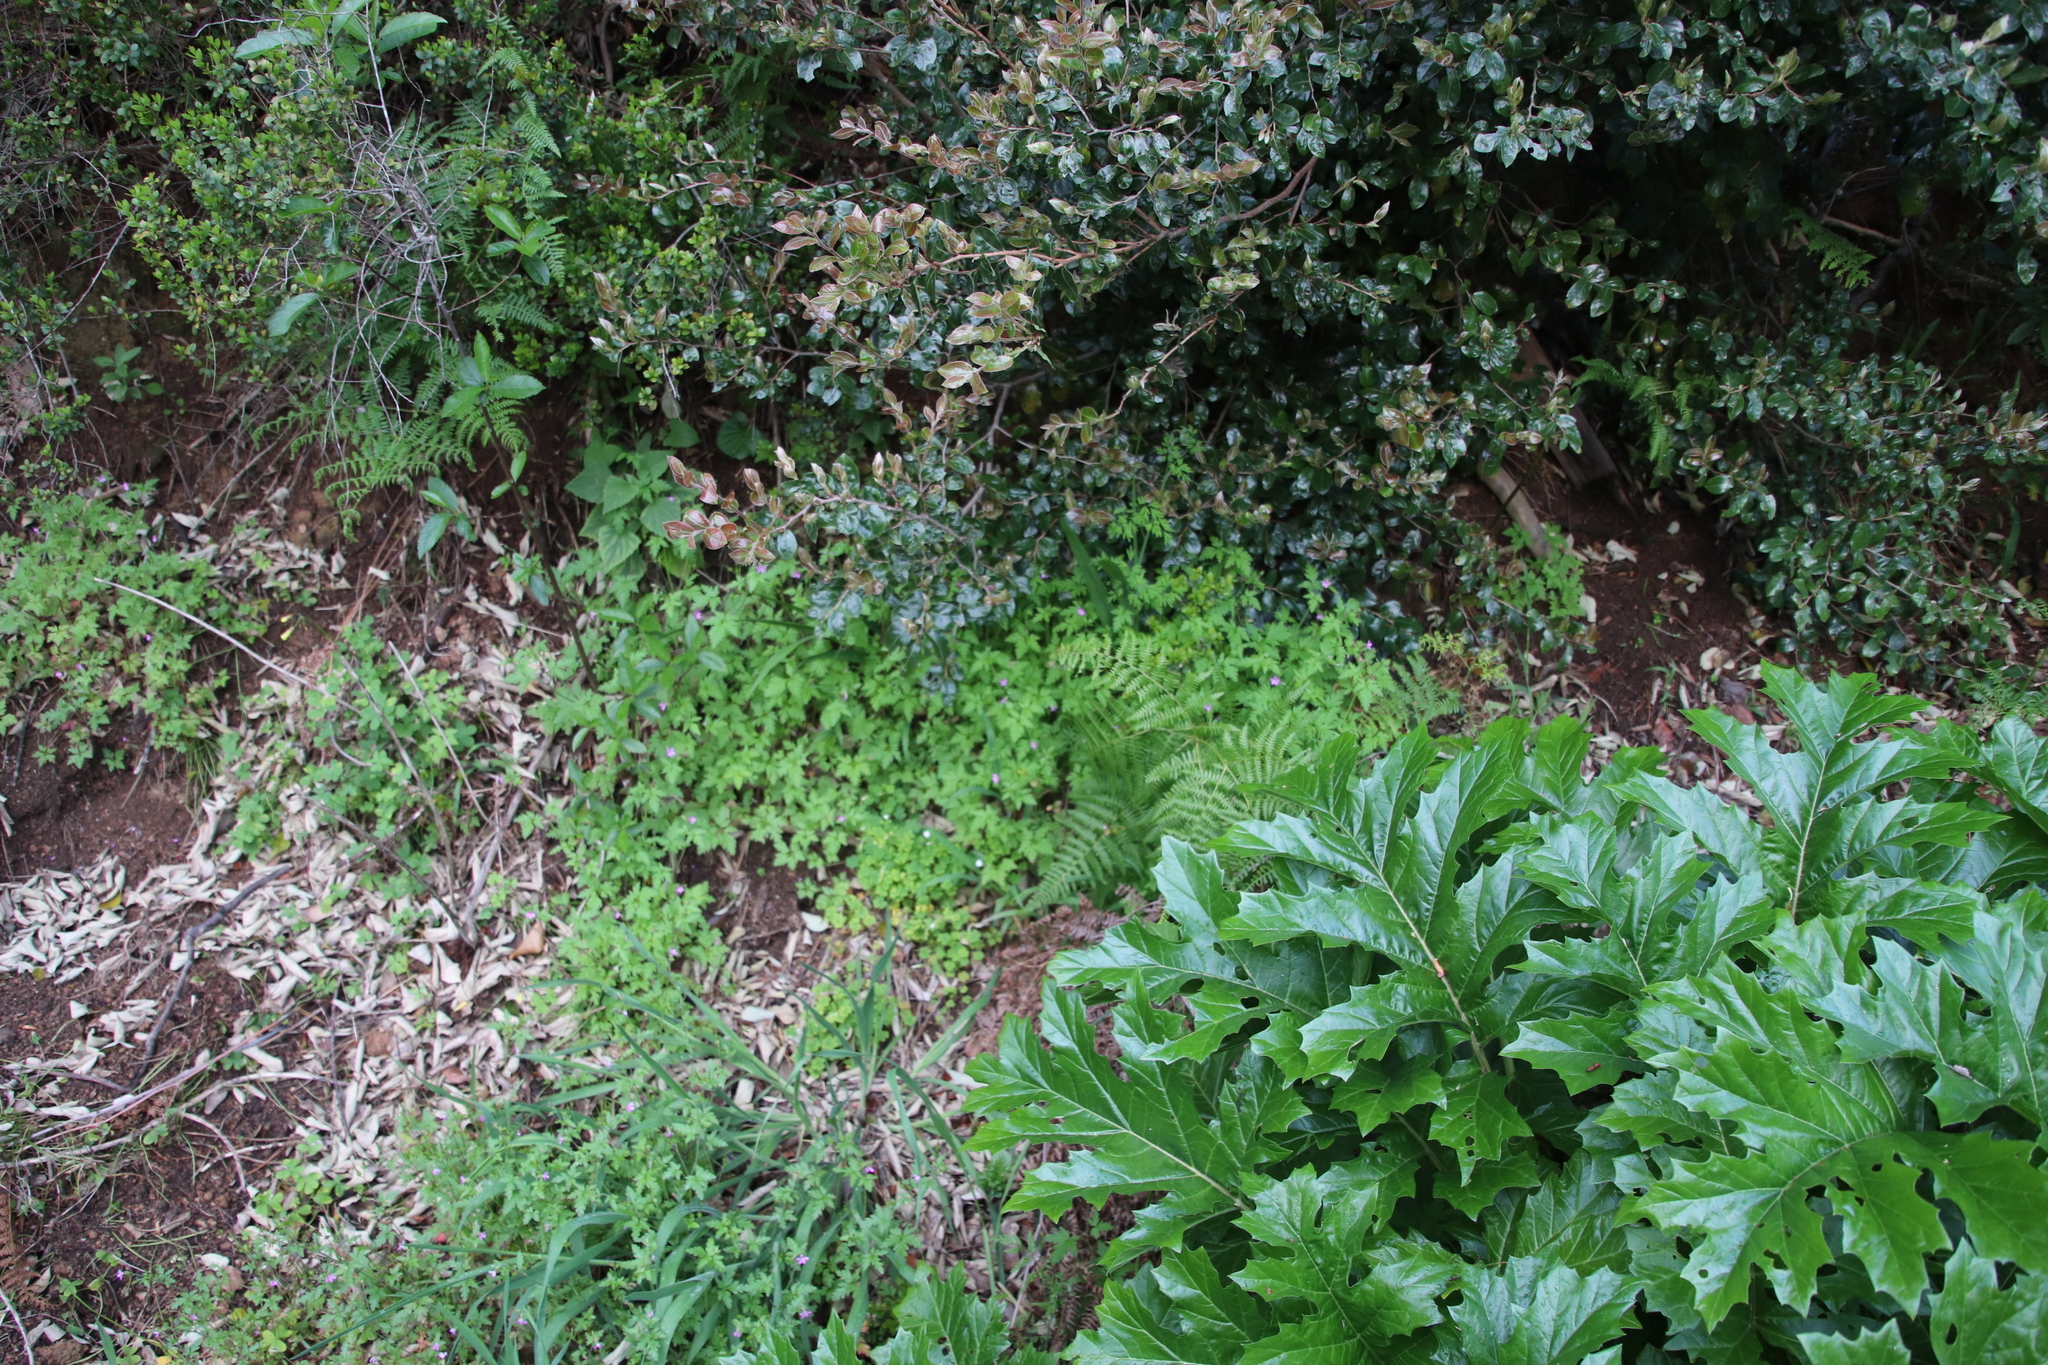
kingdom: Plantae
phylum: Tracheophyta
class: Magnoliopsida
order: Geraniales
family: Geraniaceae
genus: Geranium
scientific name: Geranium purpureum
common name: Little-robin
